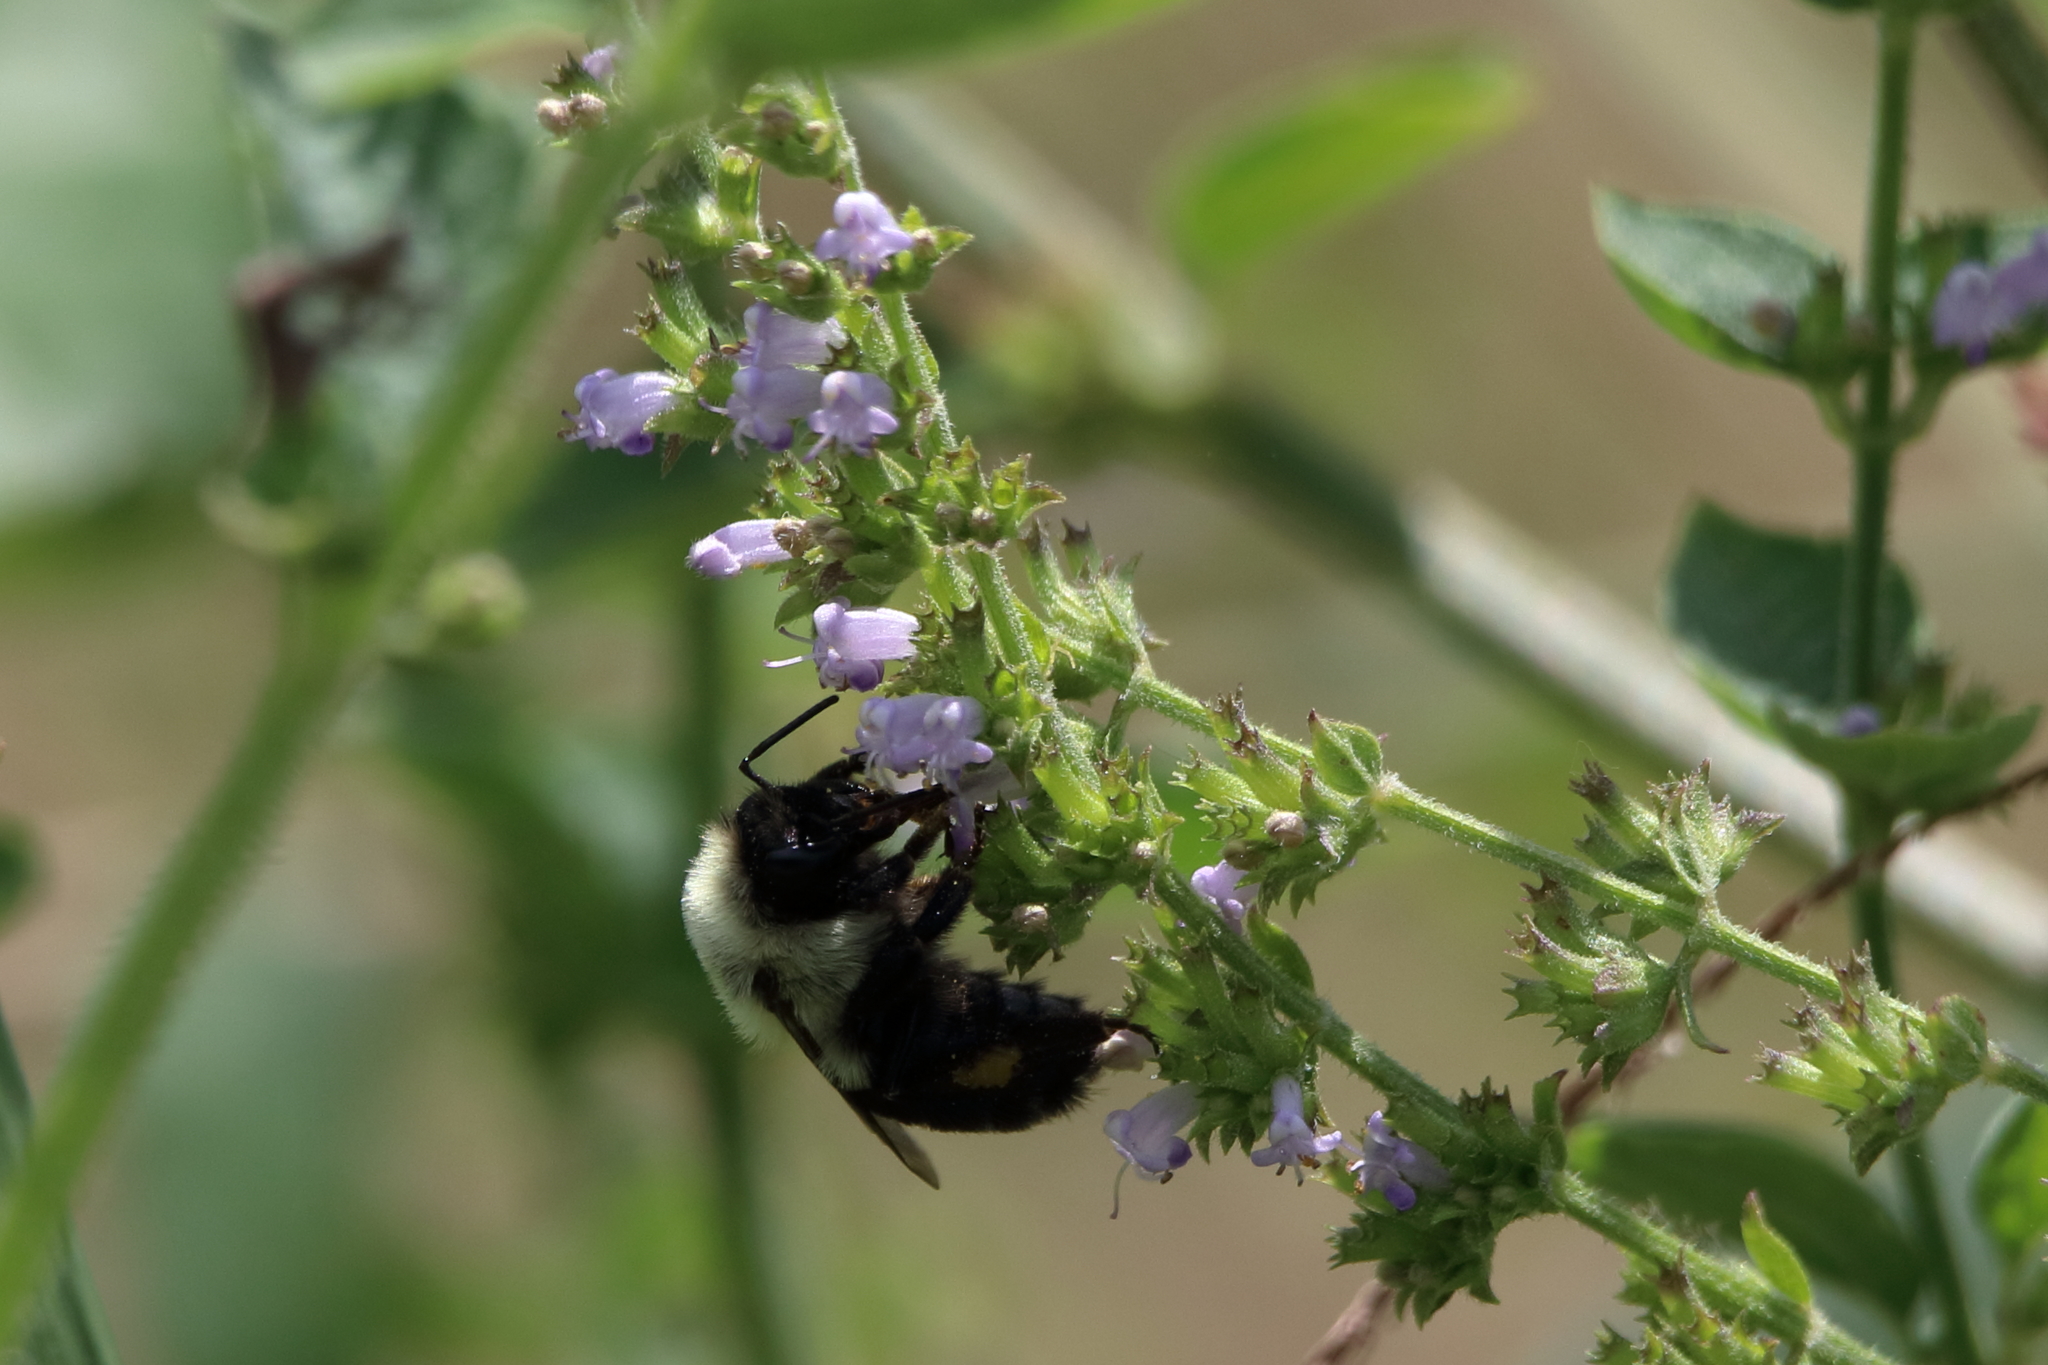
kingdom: Animalia
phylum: Arthropoda
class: Insecta
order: Hymenoptera
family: Apidae
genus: Bombus
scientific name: Bombus impatiens
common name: Common eastern bumble bee
